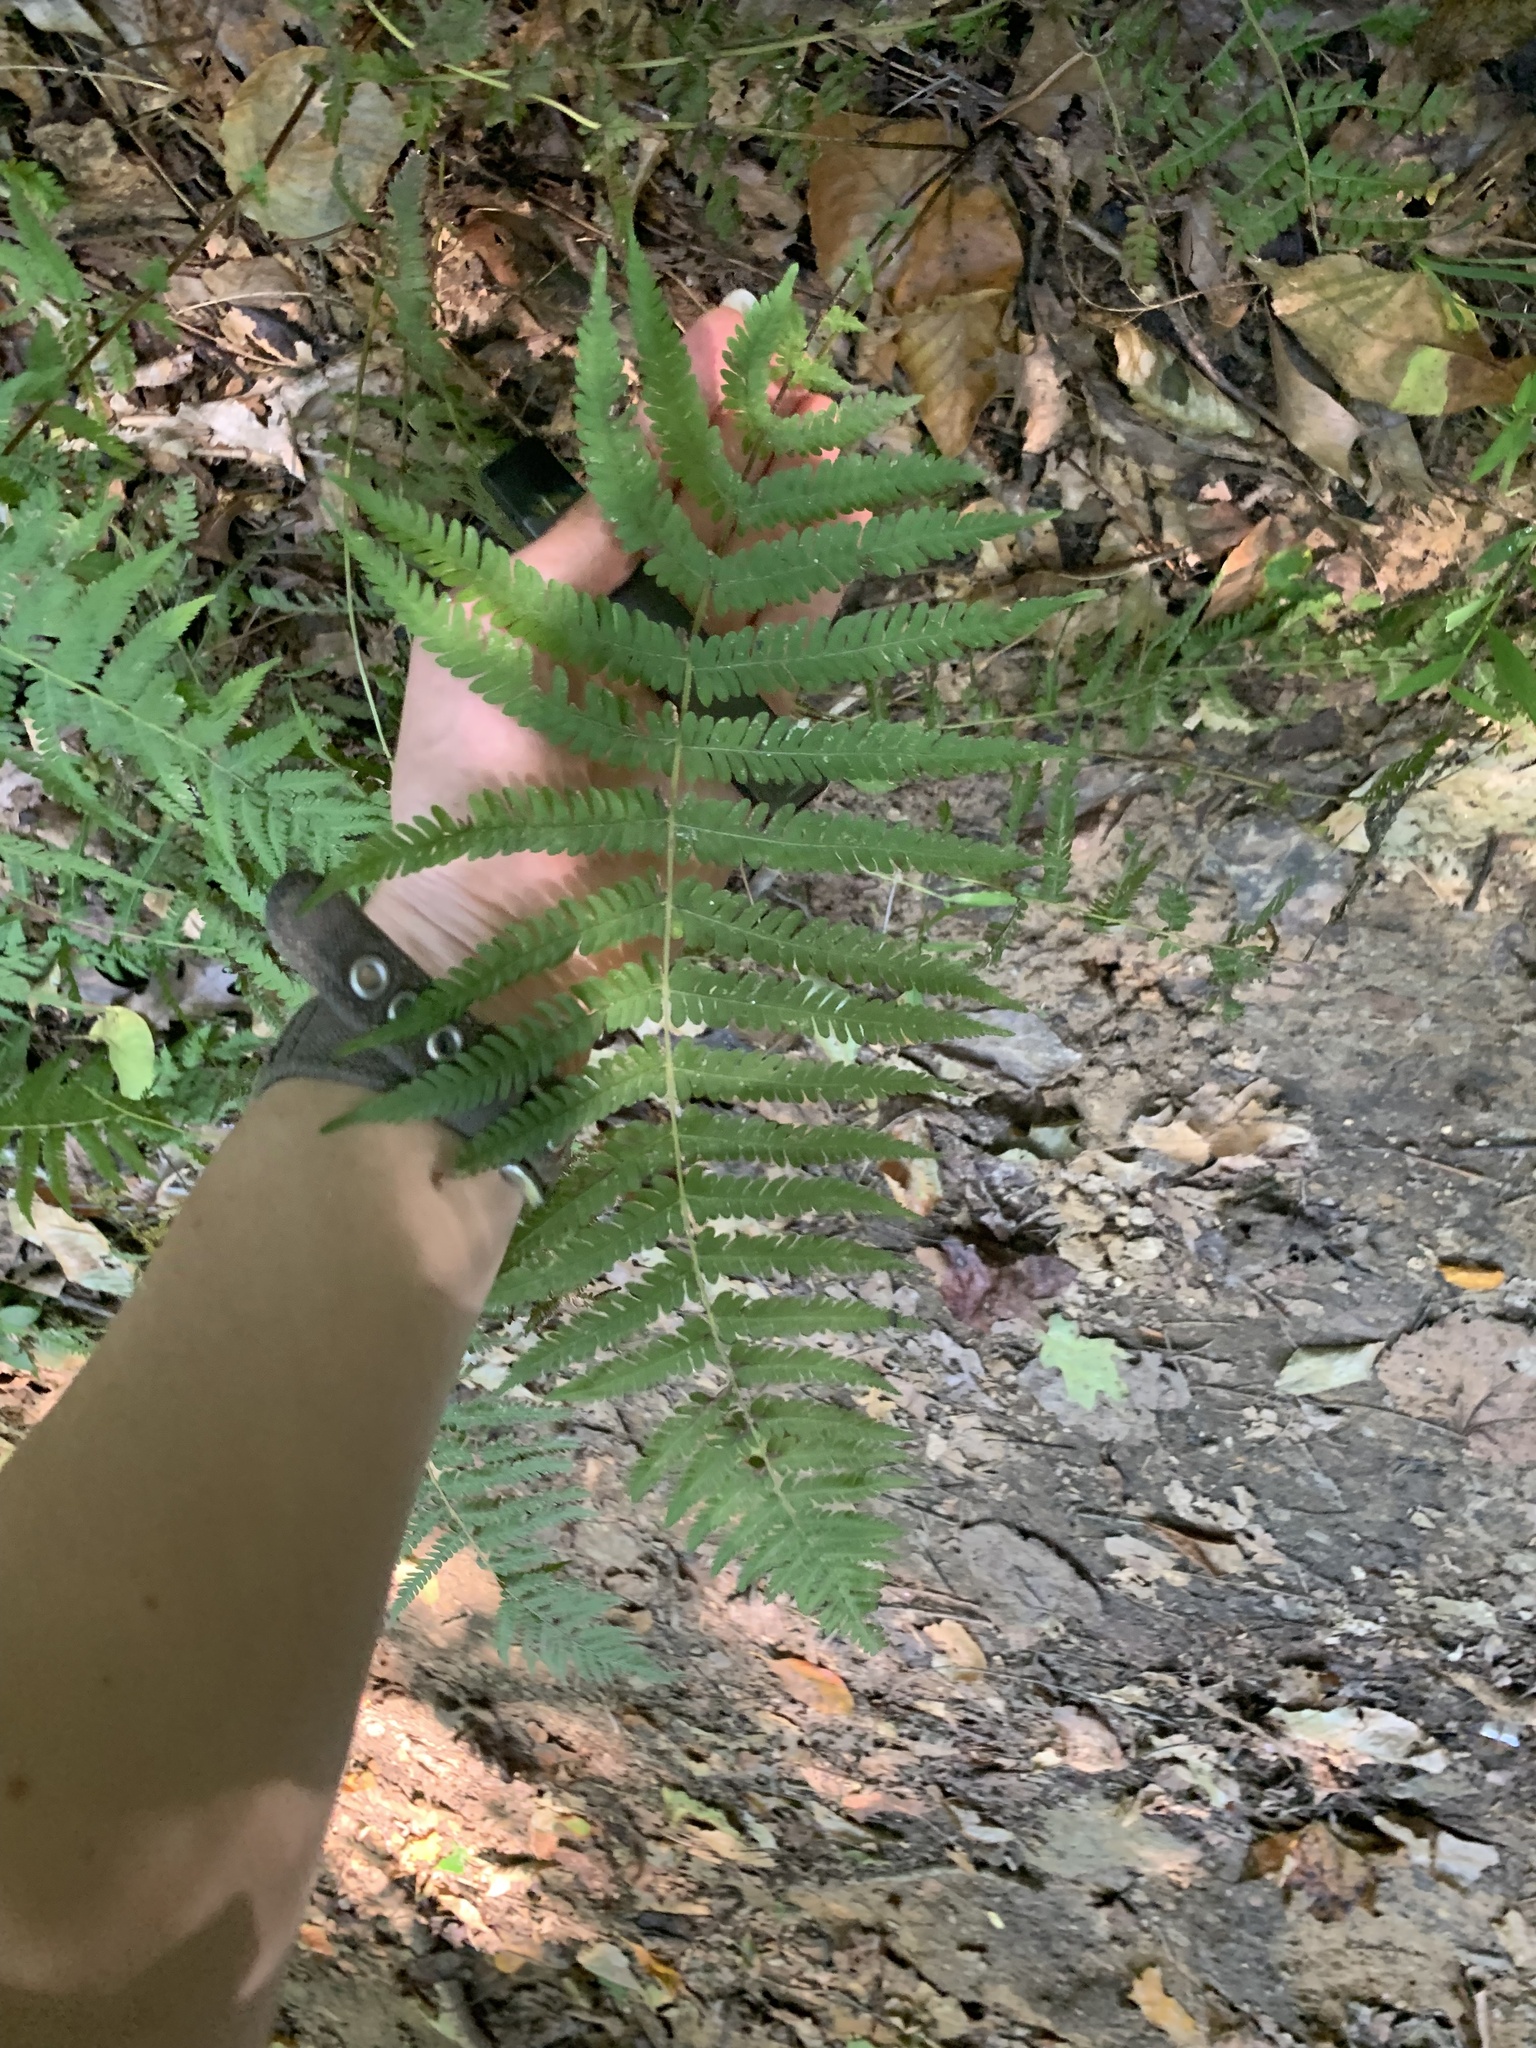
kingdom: Plantae
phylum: Tracheophyta
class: Polypodiopsida
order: Polypodiales
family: Thelypteridaceae
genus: Amauropelta
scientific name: Amauropelta noveboracensis
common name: New york fern
